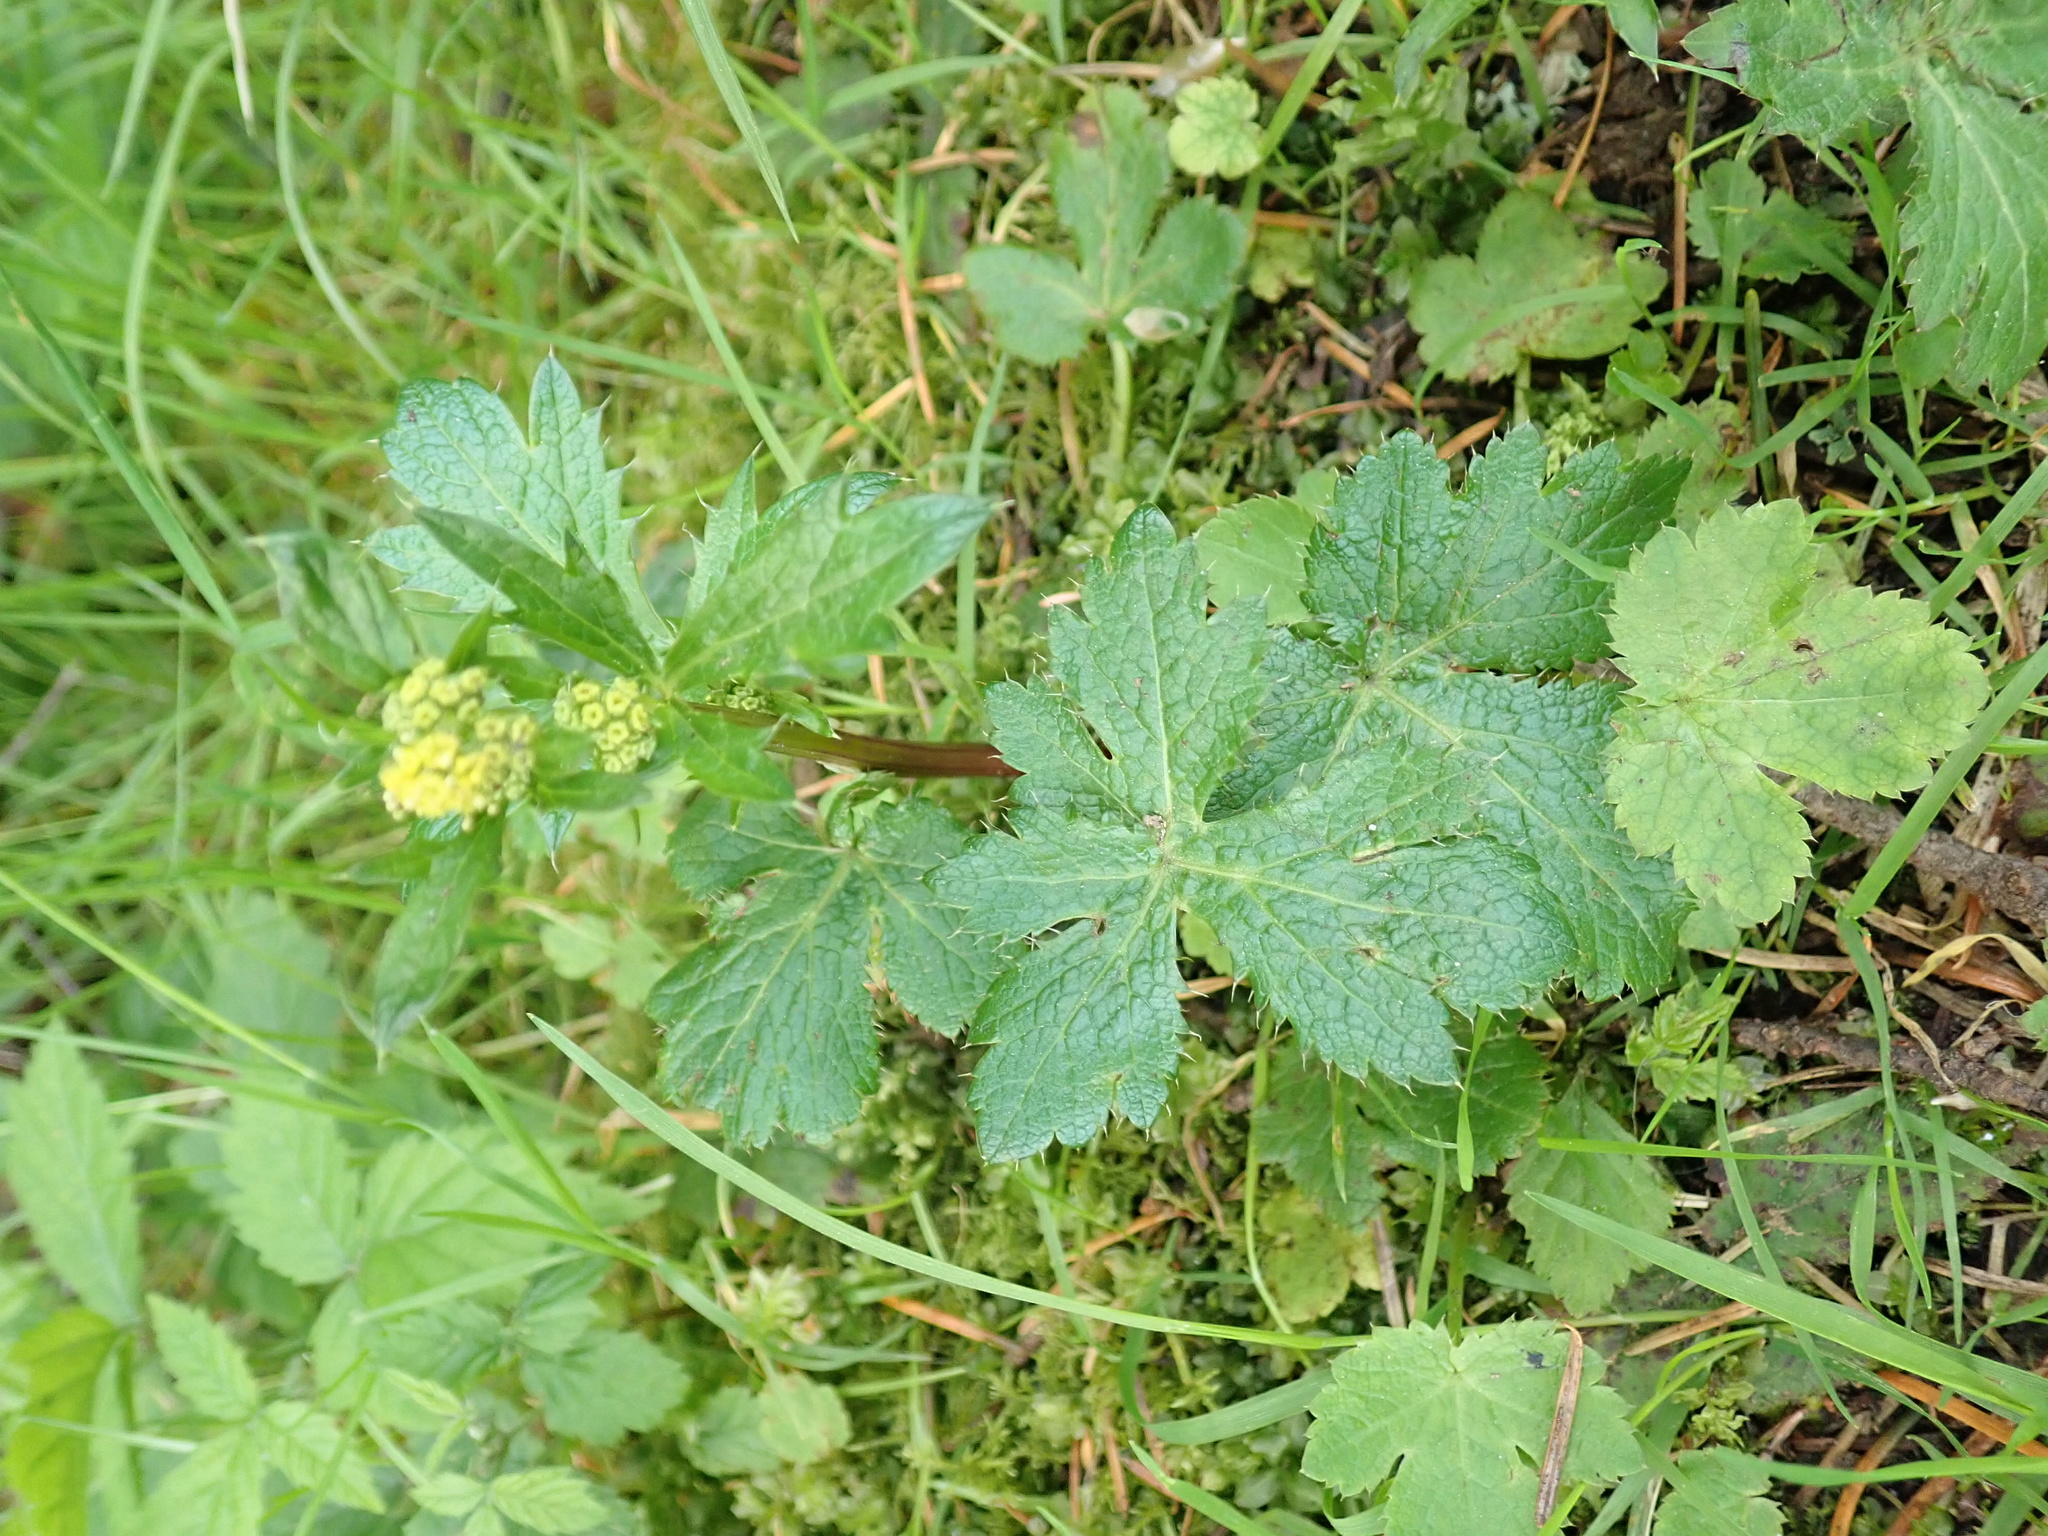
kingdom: Plantae
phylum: Tracheophyta
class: Magnoliopsida
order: Apiales
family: Apiaceae
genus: Sanicula
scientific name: Sanicula crassicaulis
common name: Western snakeroot
